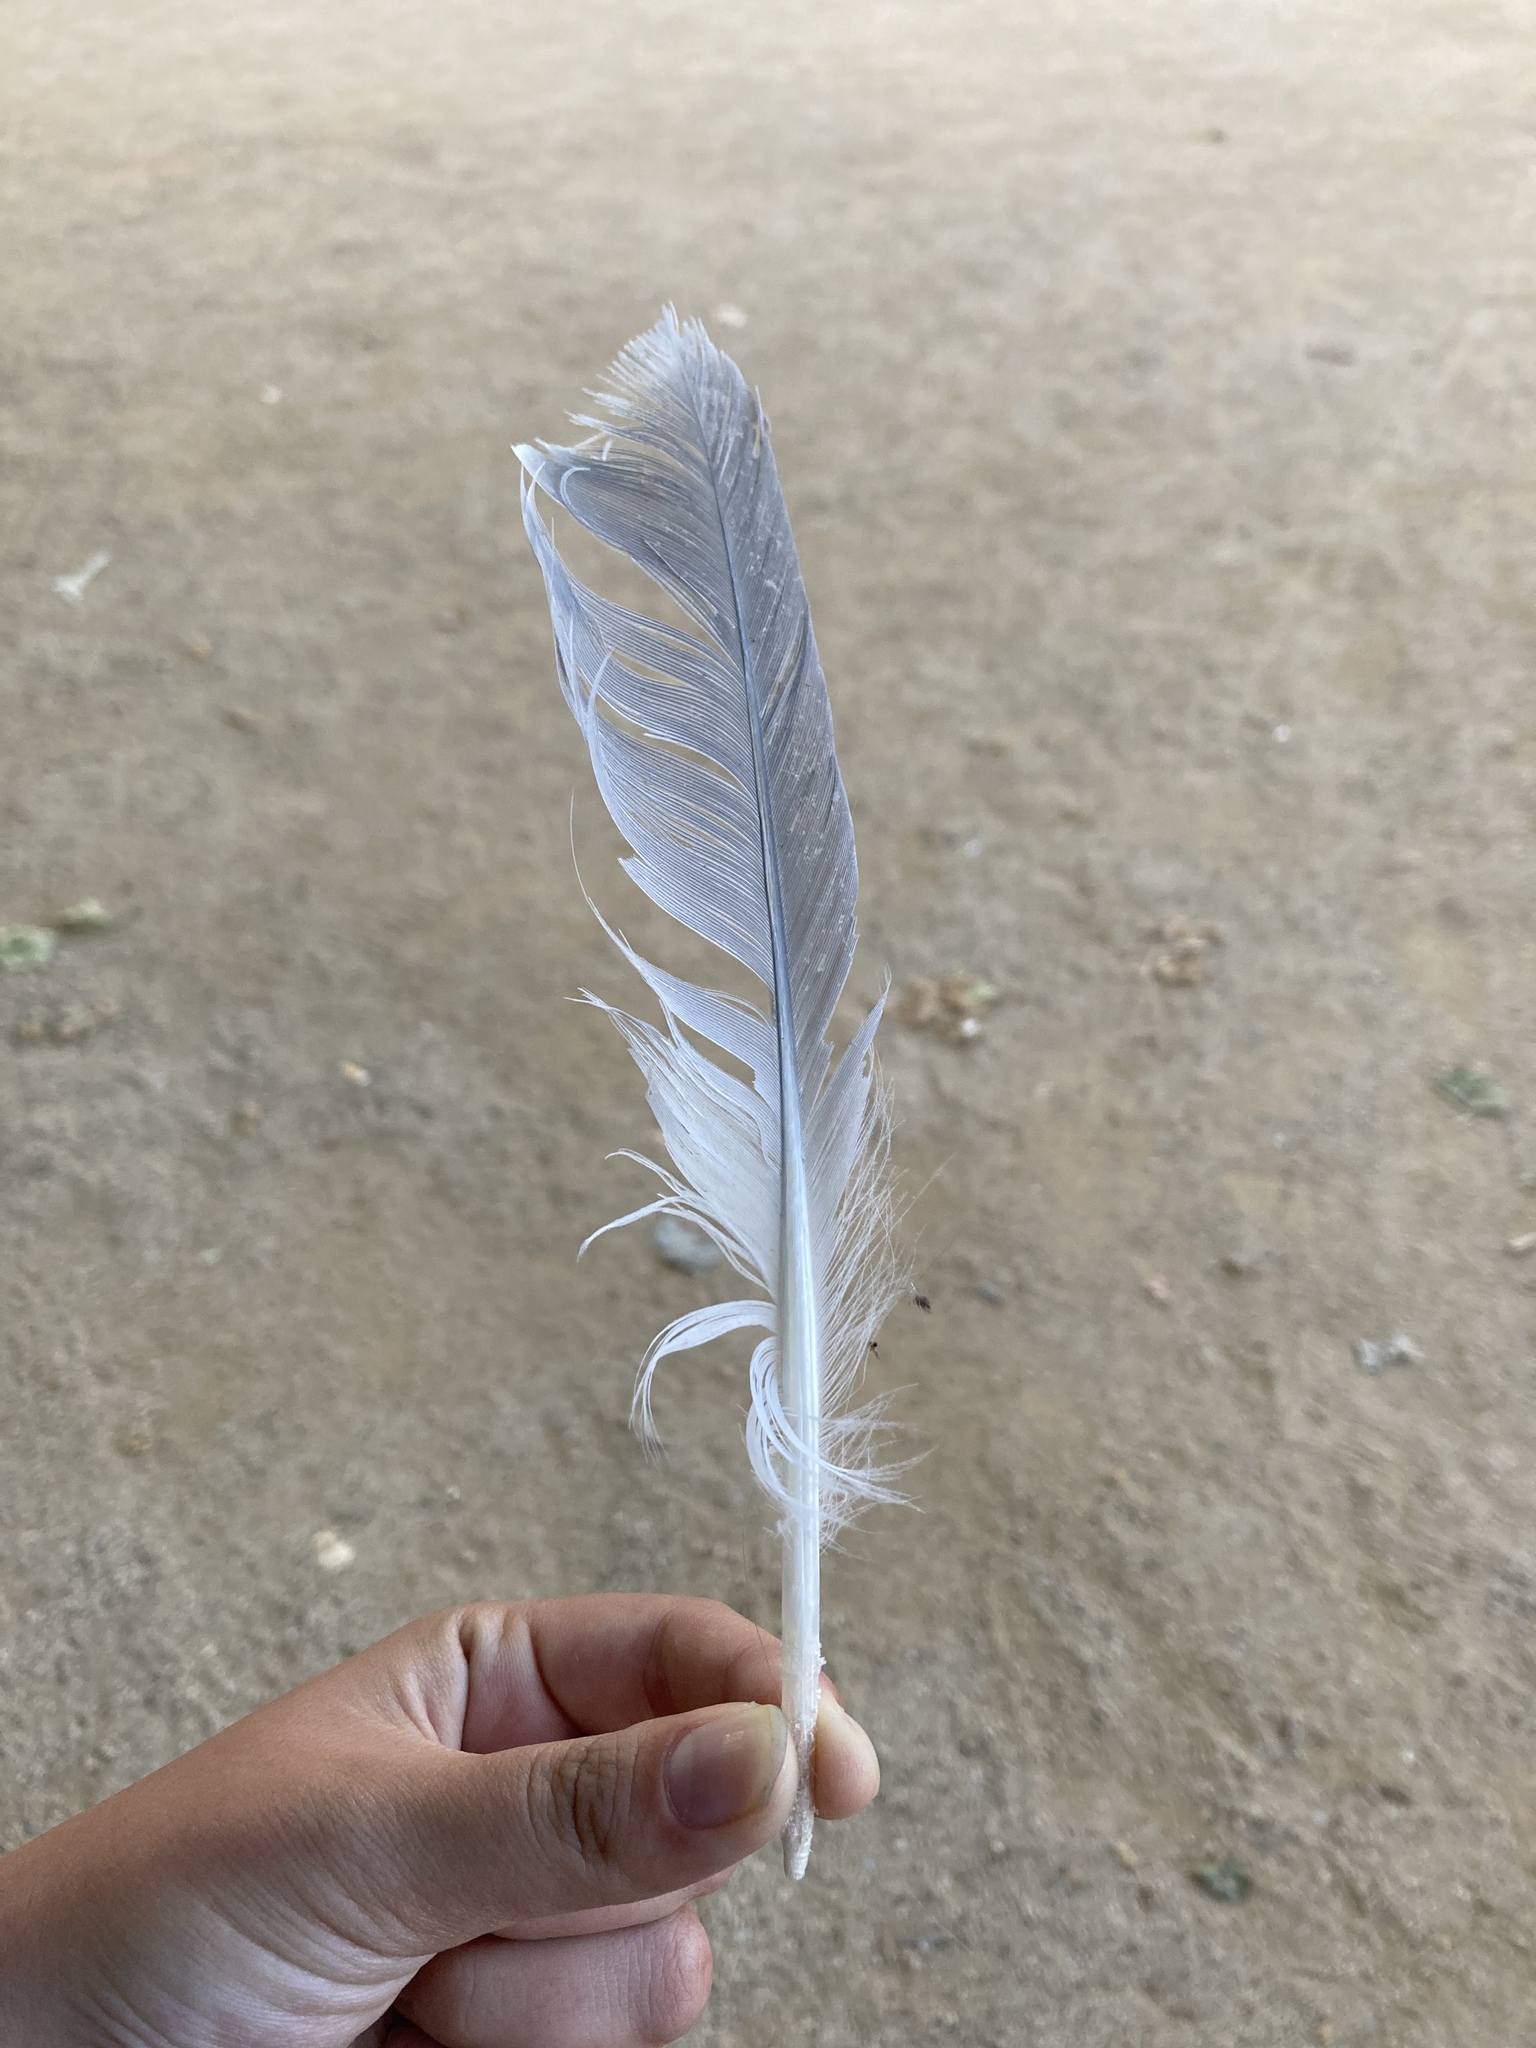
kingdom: Animalia
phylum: Chordata
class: Aves
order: Charadriiformes
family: Laridae
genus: Larus
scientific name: Larus michahellis
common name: Yellow-legged gull
